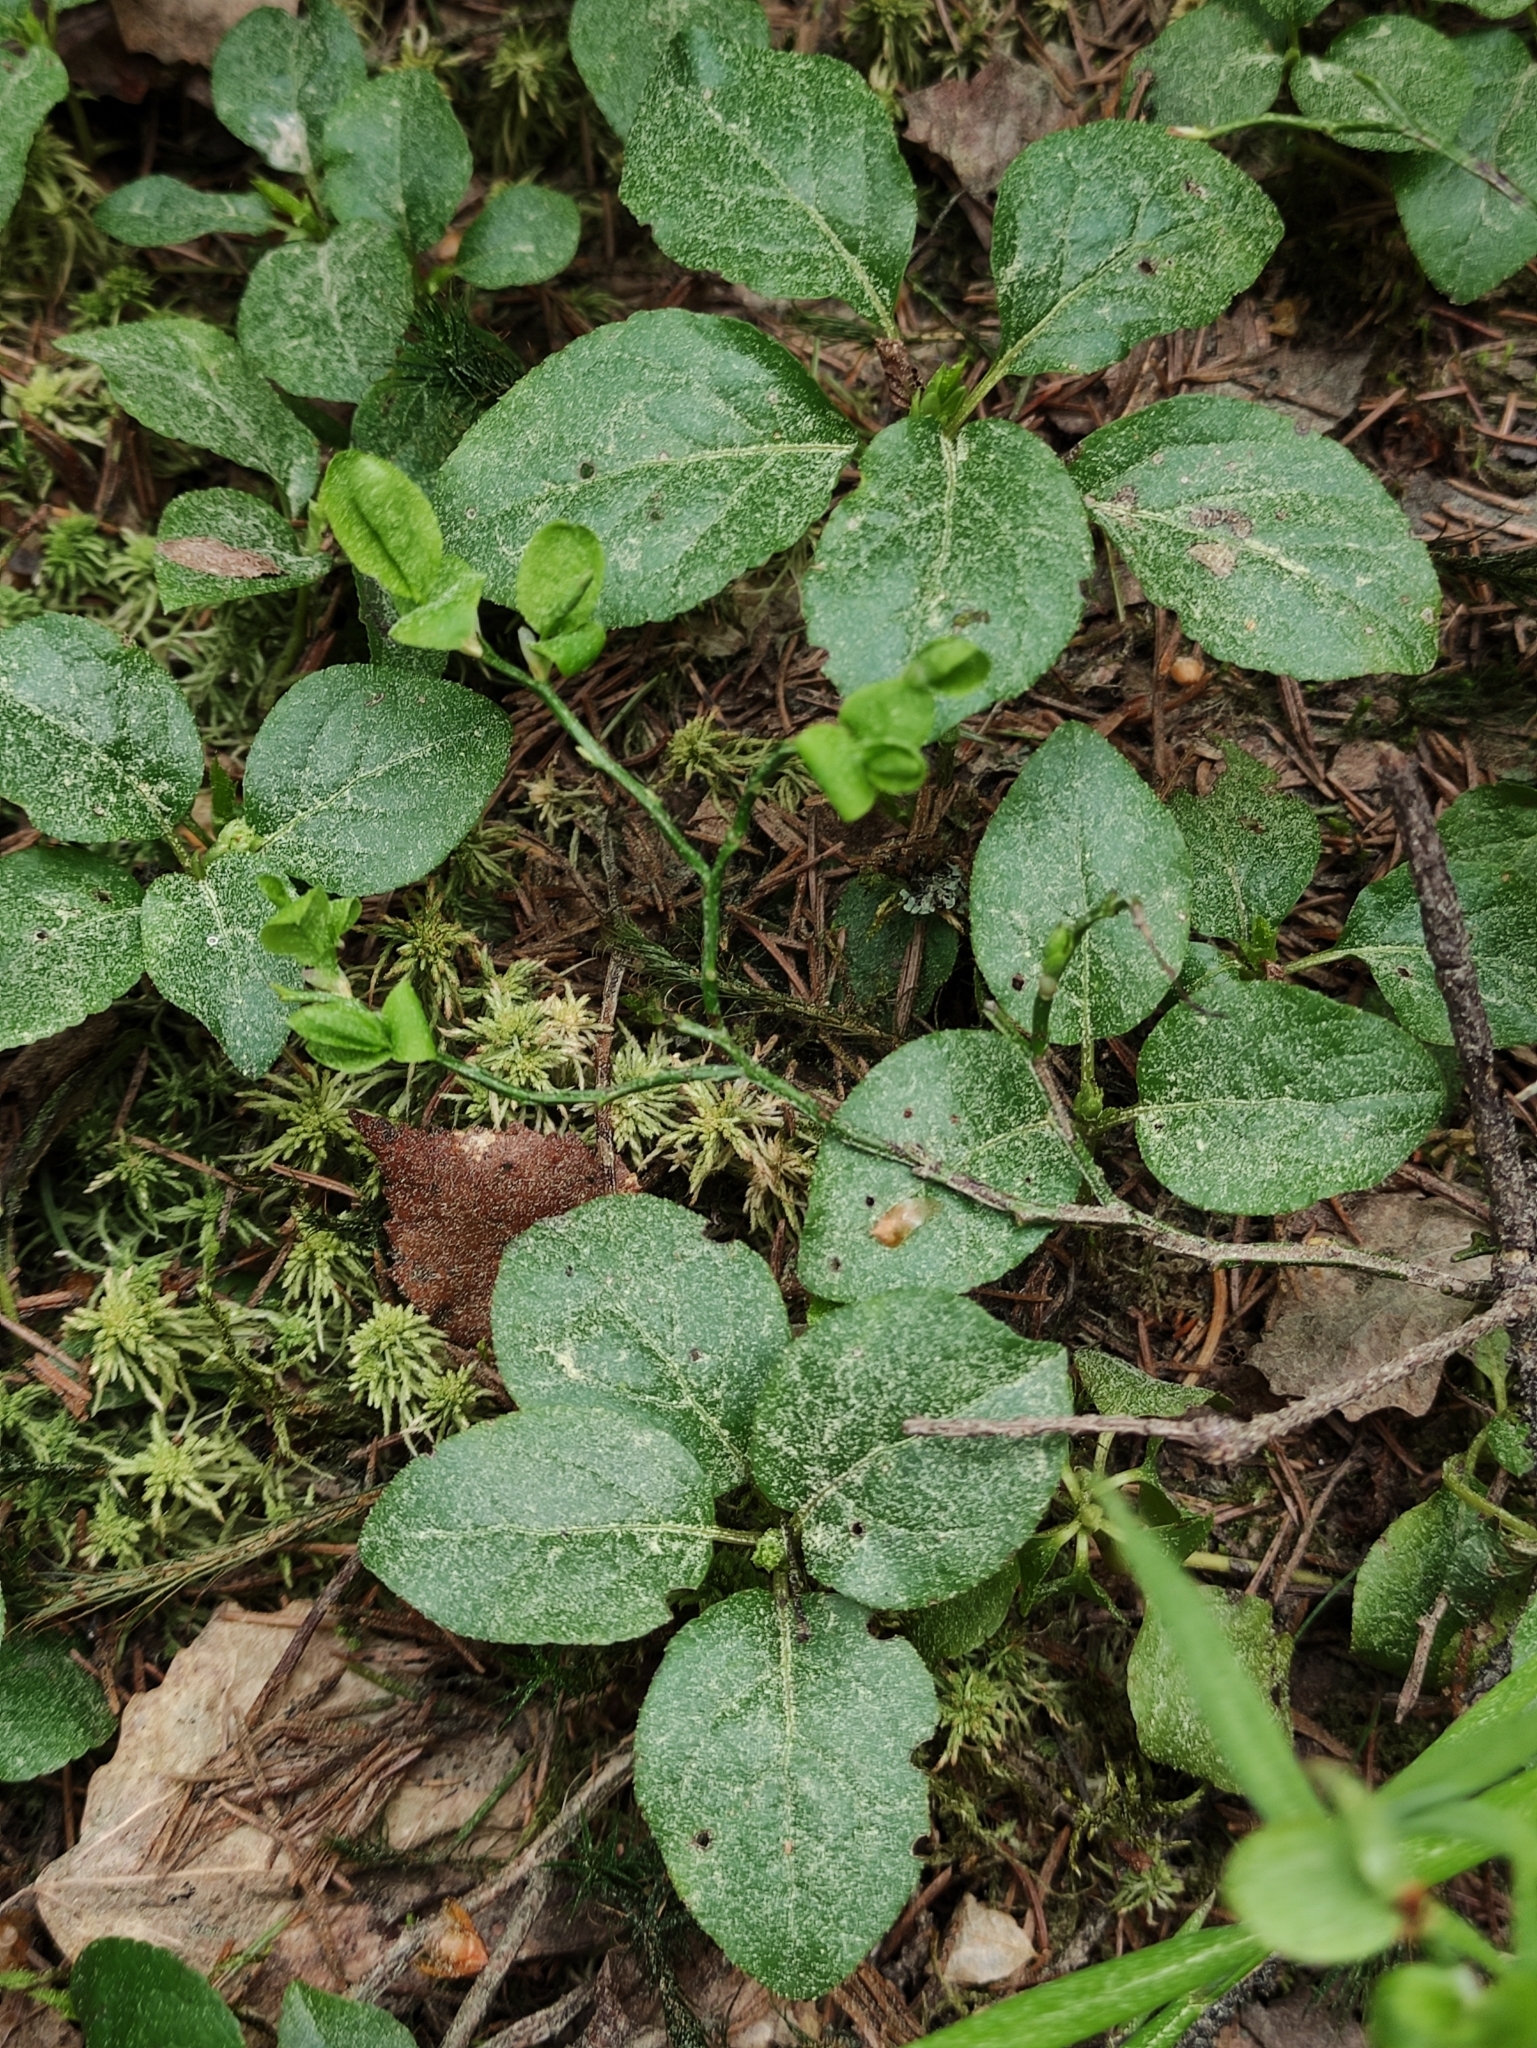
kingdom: Plantae
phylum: Tracheophyta
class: Magnoliopsida
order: Ericales
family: Ericaceae
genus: Orthilia
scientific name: Orthilia secunda
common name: One-sided orthilia
